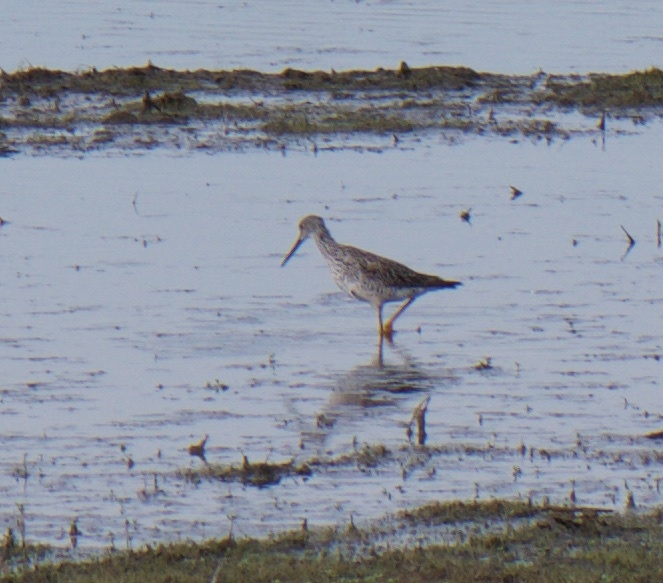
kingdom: Animalia
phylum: Chordata
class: Aves
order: Charadriiformes
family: Scolopacidae
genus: Tringa
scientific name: Tringa melanoleuca
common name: Greater yellowlegs
